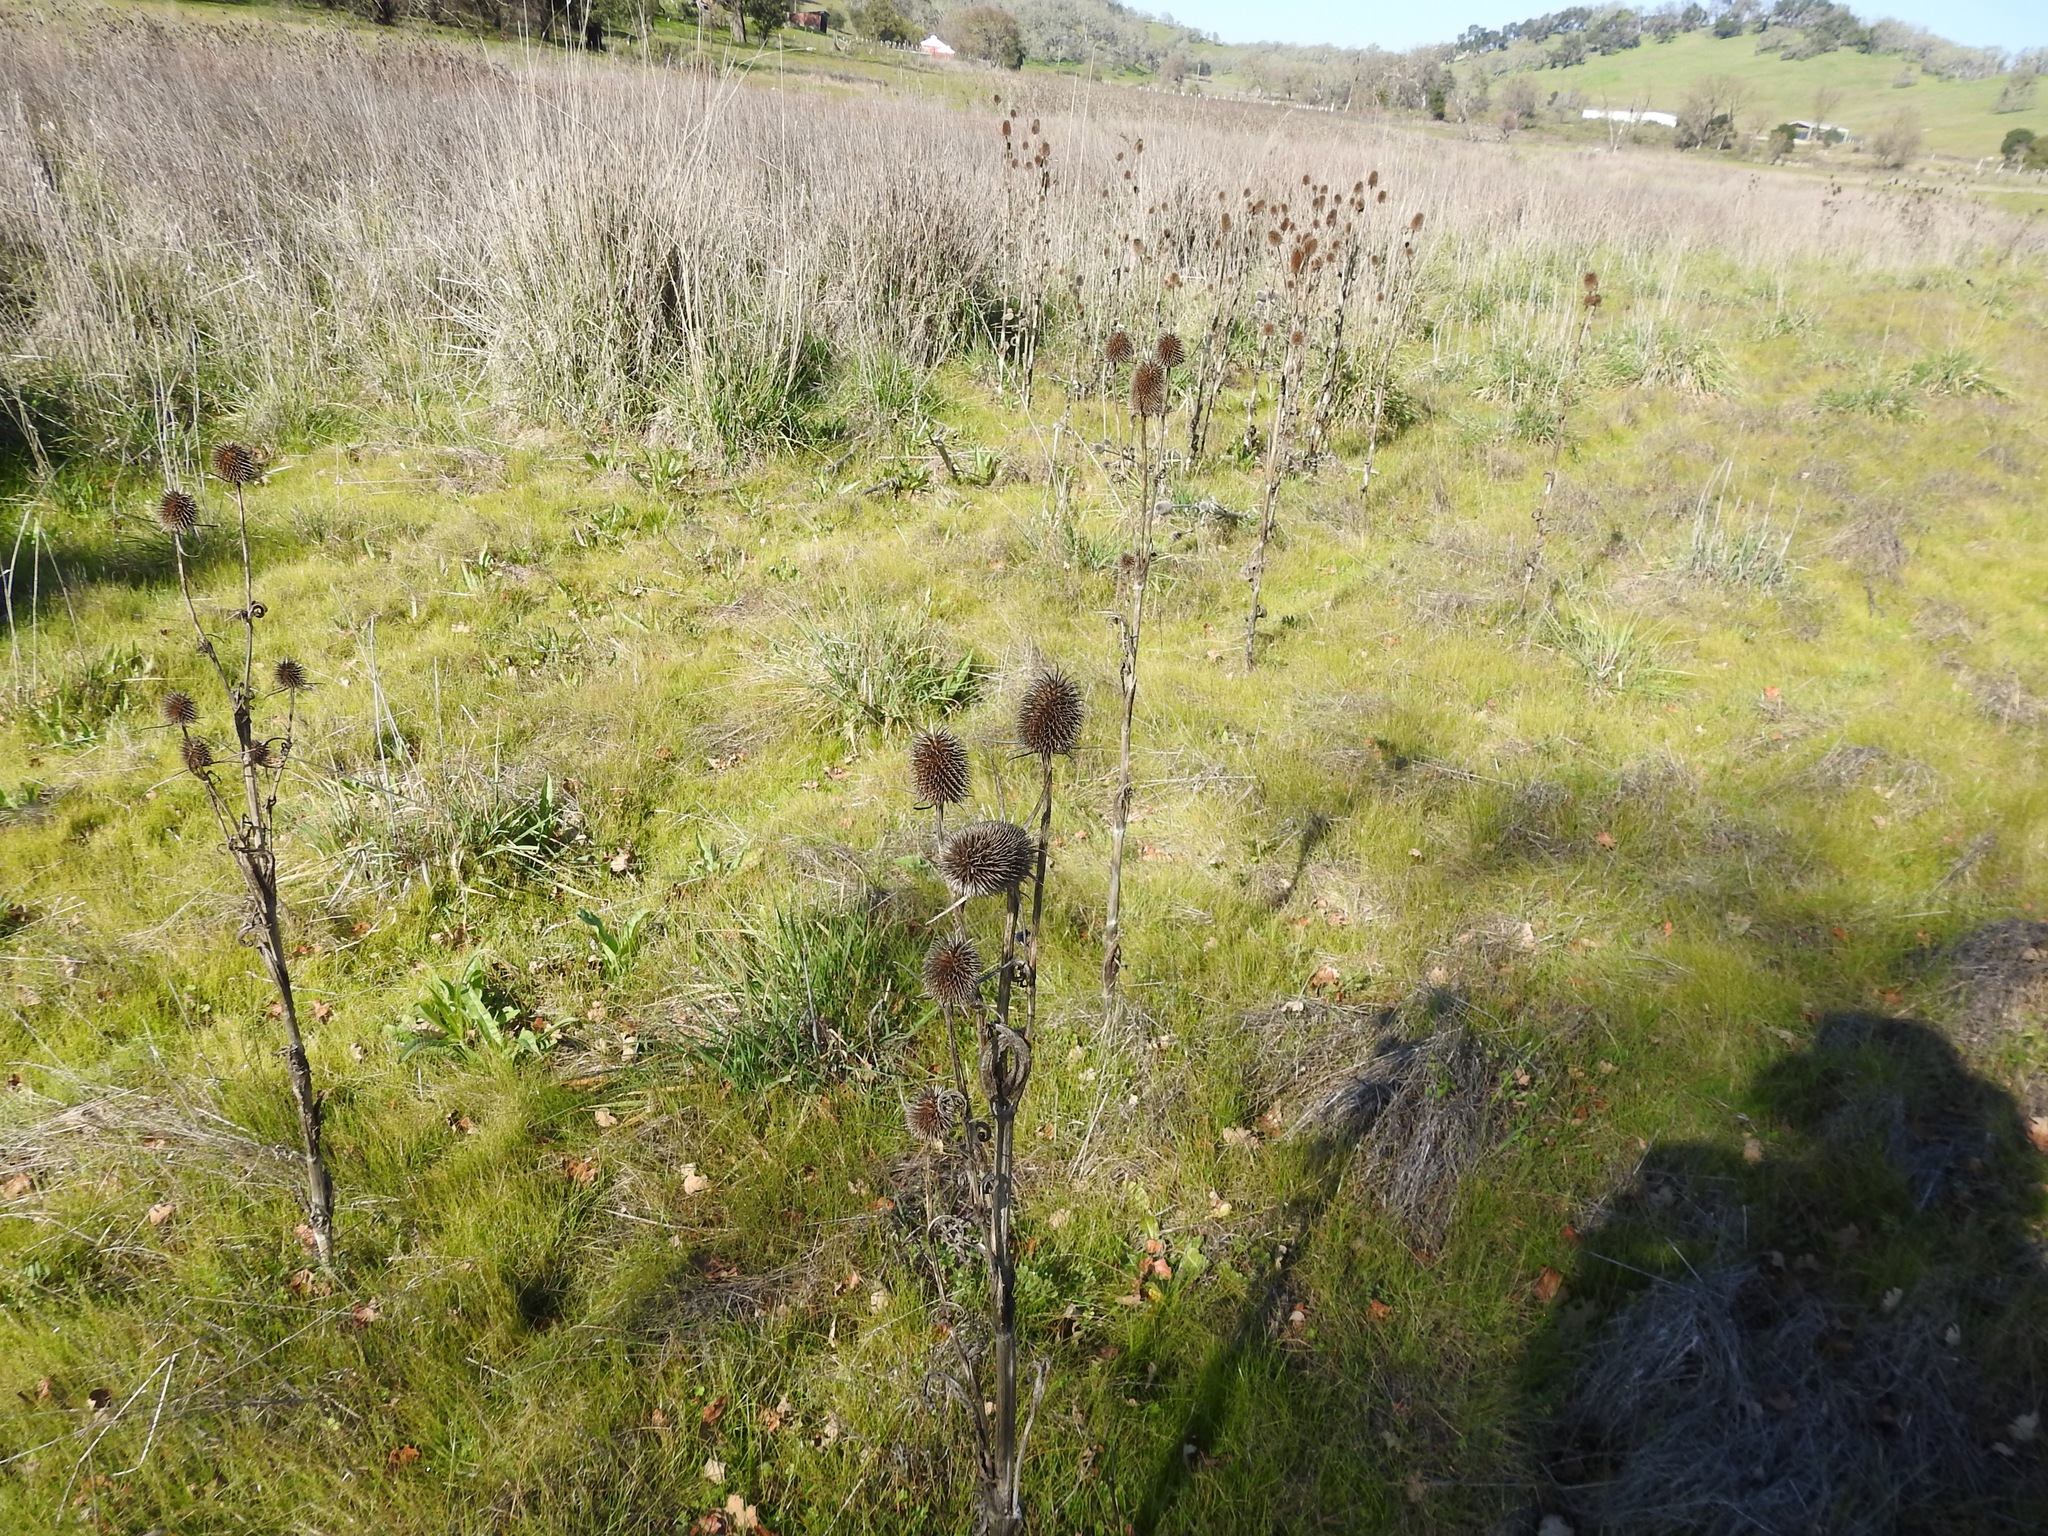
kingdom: Plantae
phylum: Tracheophyta
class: Magnoliopsida
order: Dipsacales
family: Caprifoliaceae
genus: Dipsacus
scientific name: Dipsacus sativus
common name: Fuller's teasel
